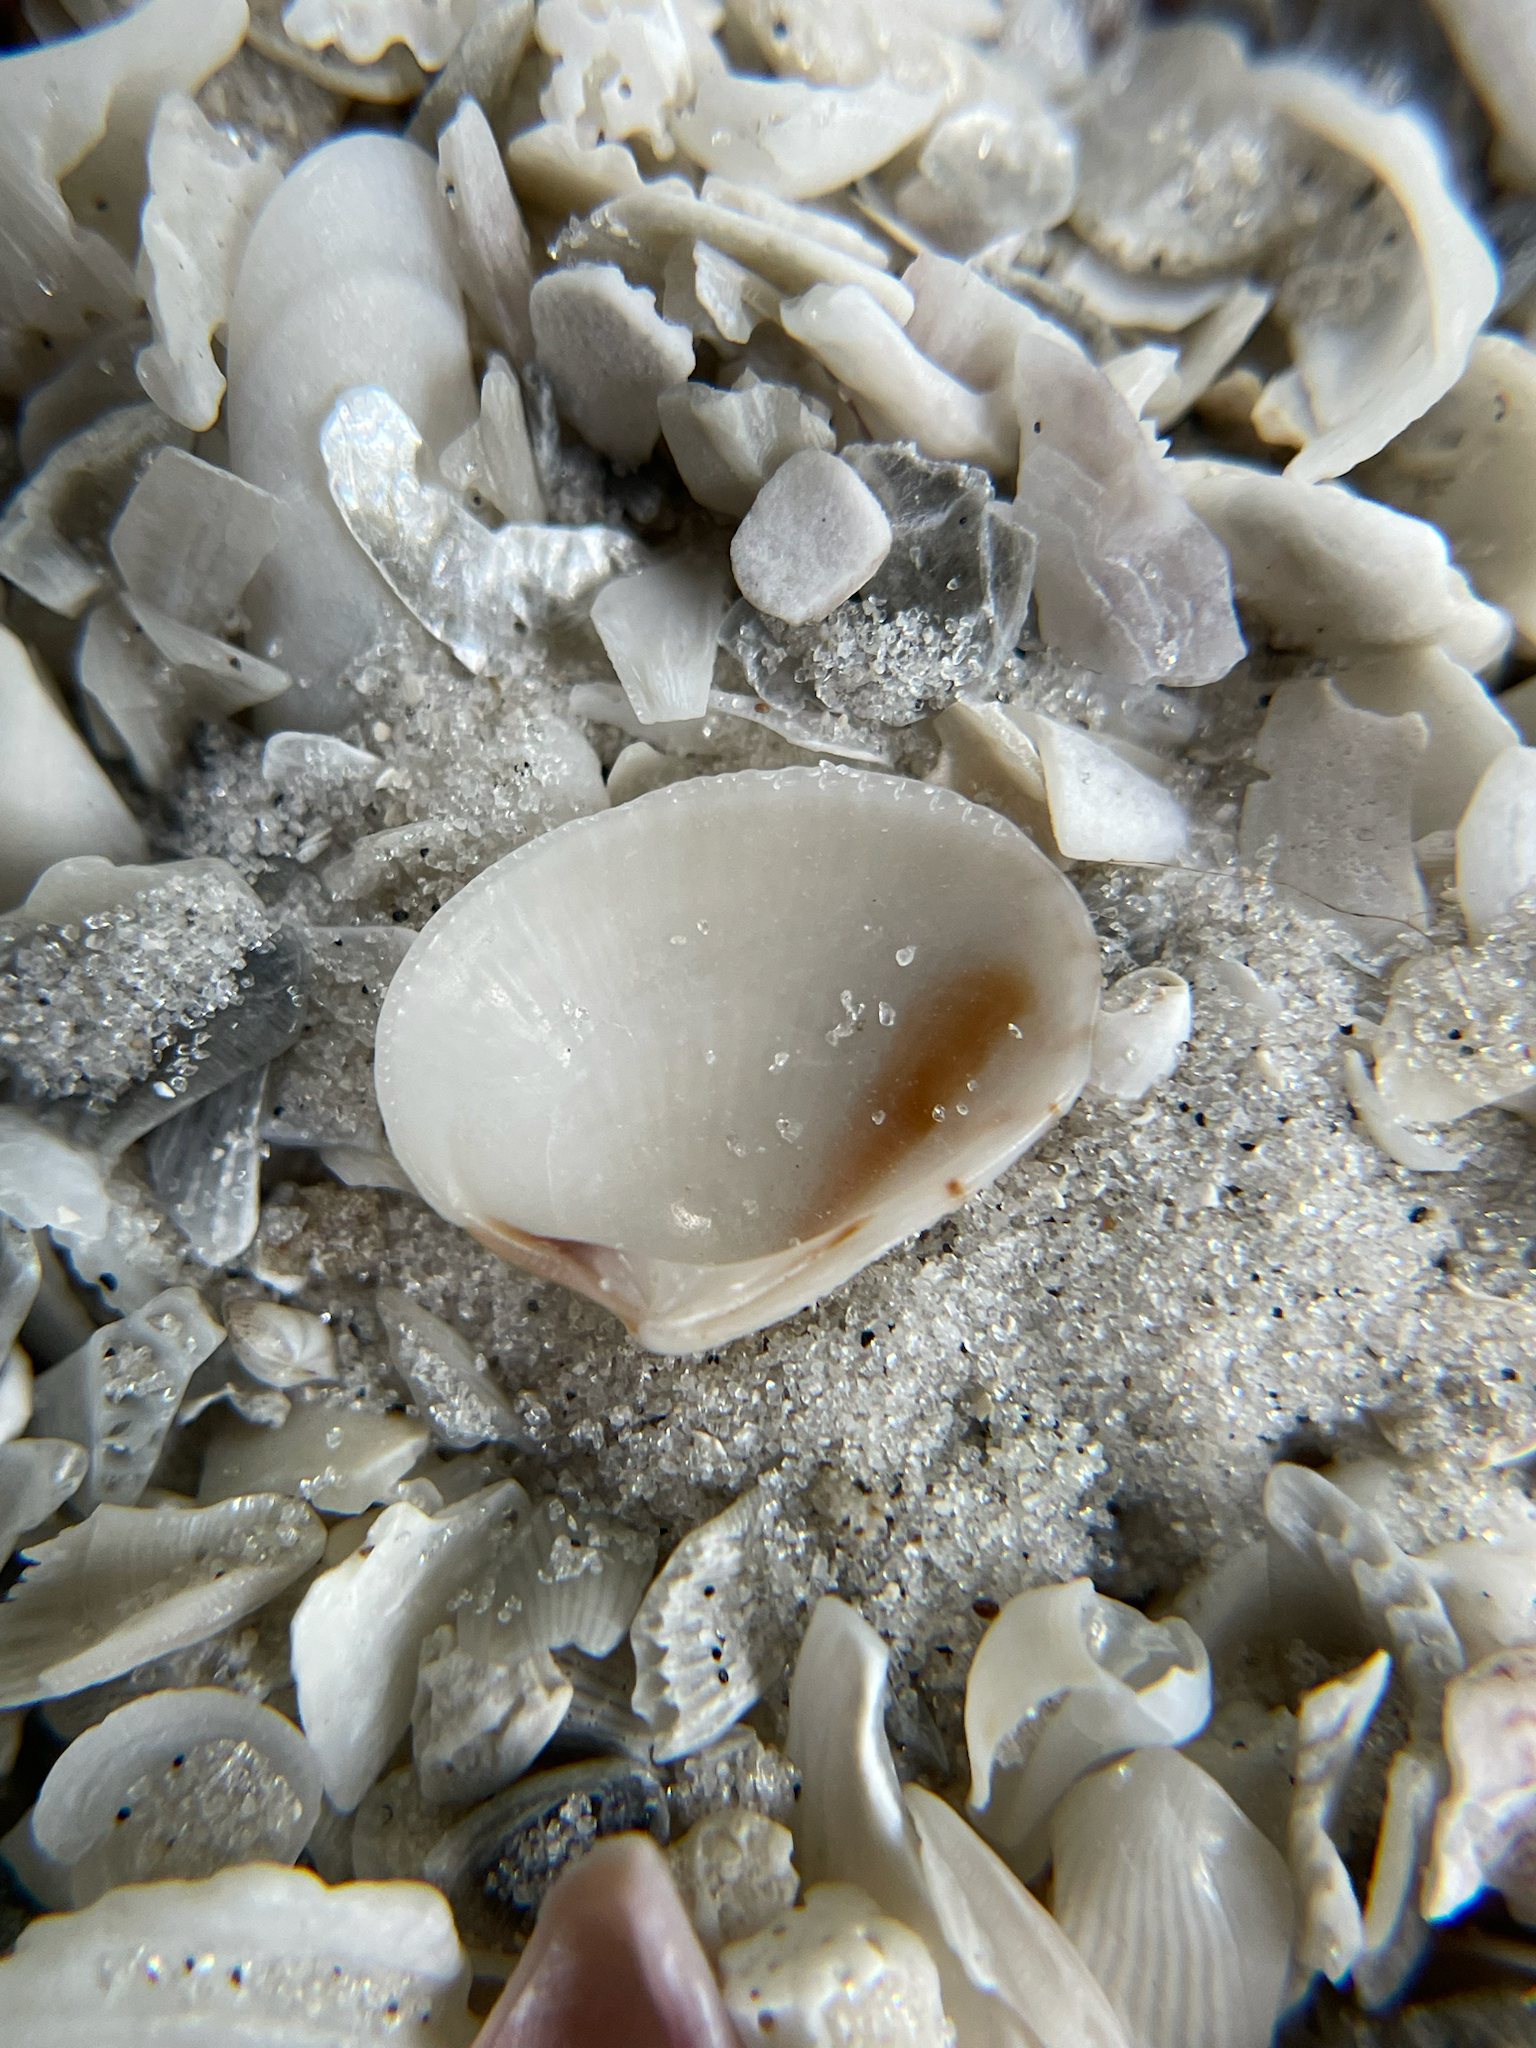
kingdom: Animalia
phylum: Mollusca
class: Bivalvia
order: Venerida
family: Veneridae
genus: Chioneryx
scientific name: Chioneryx grus
